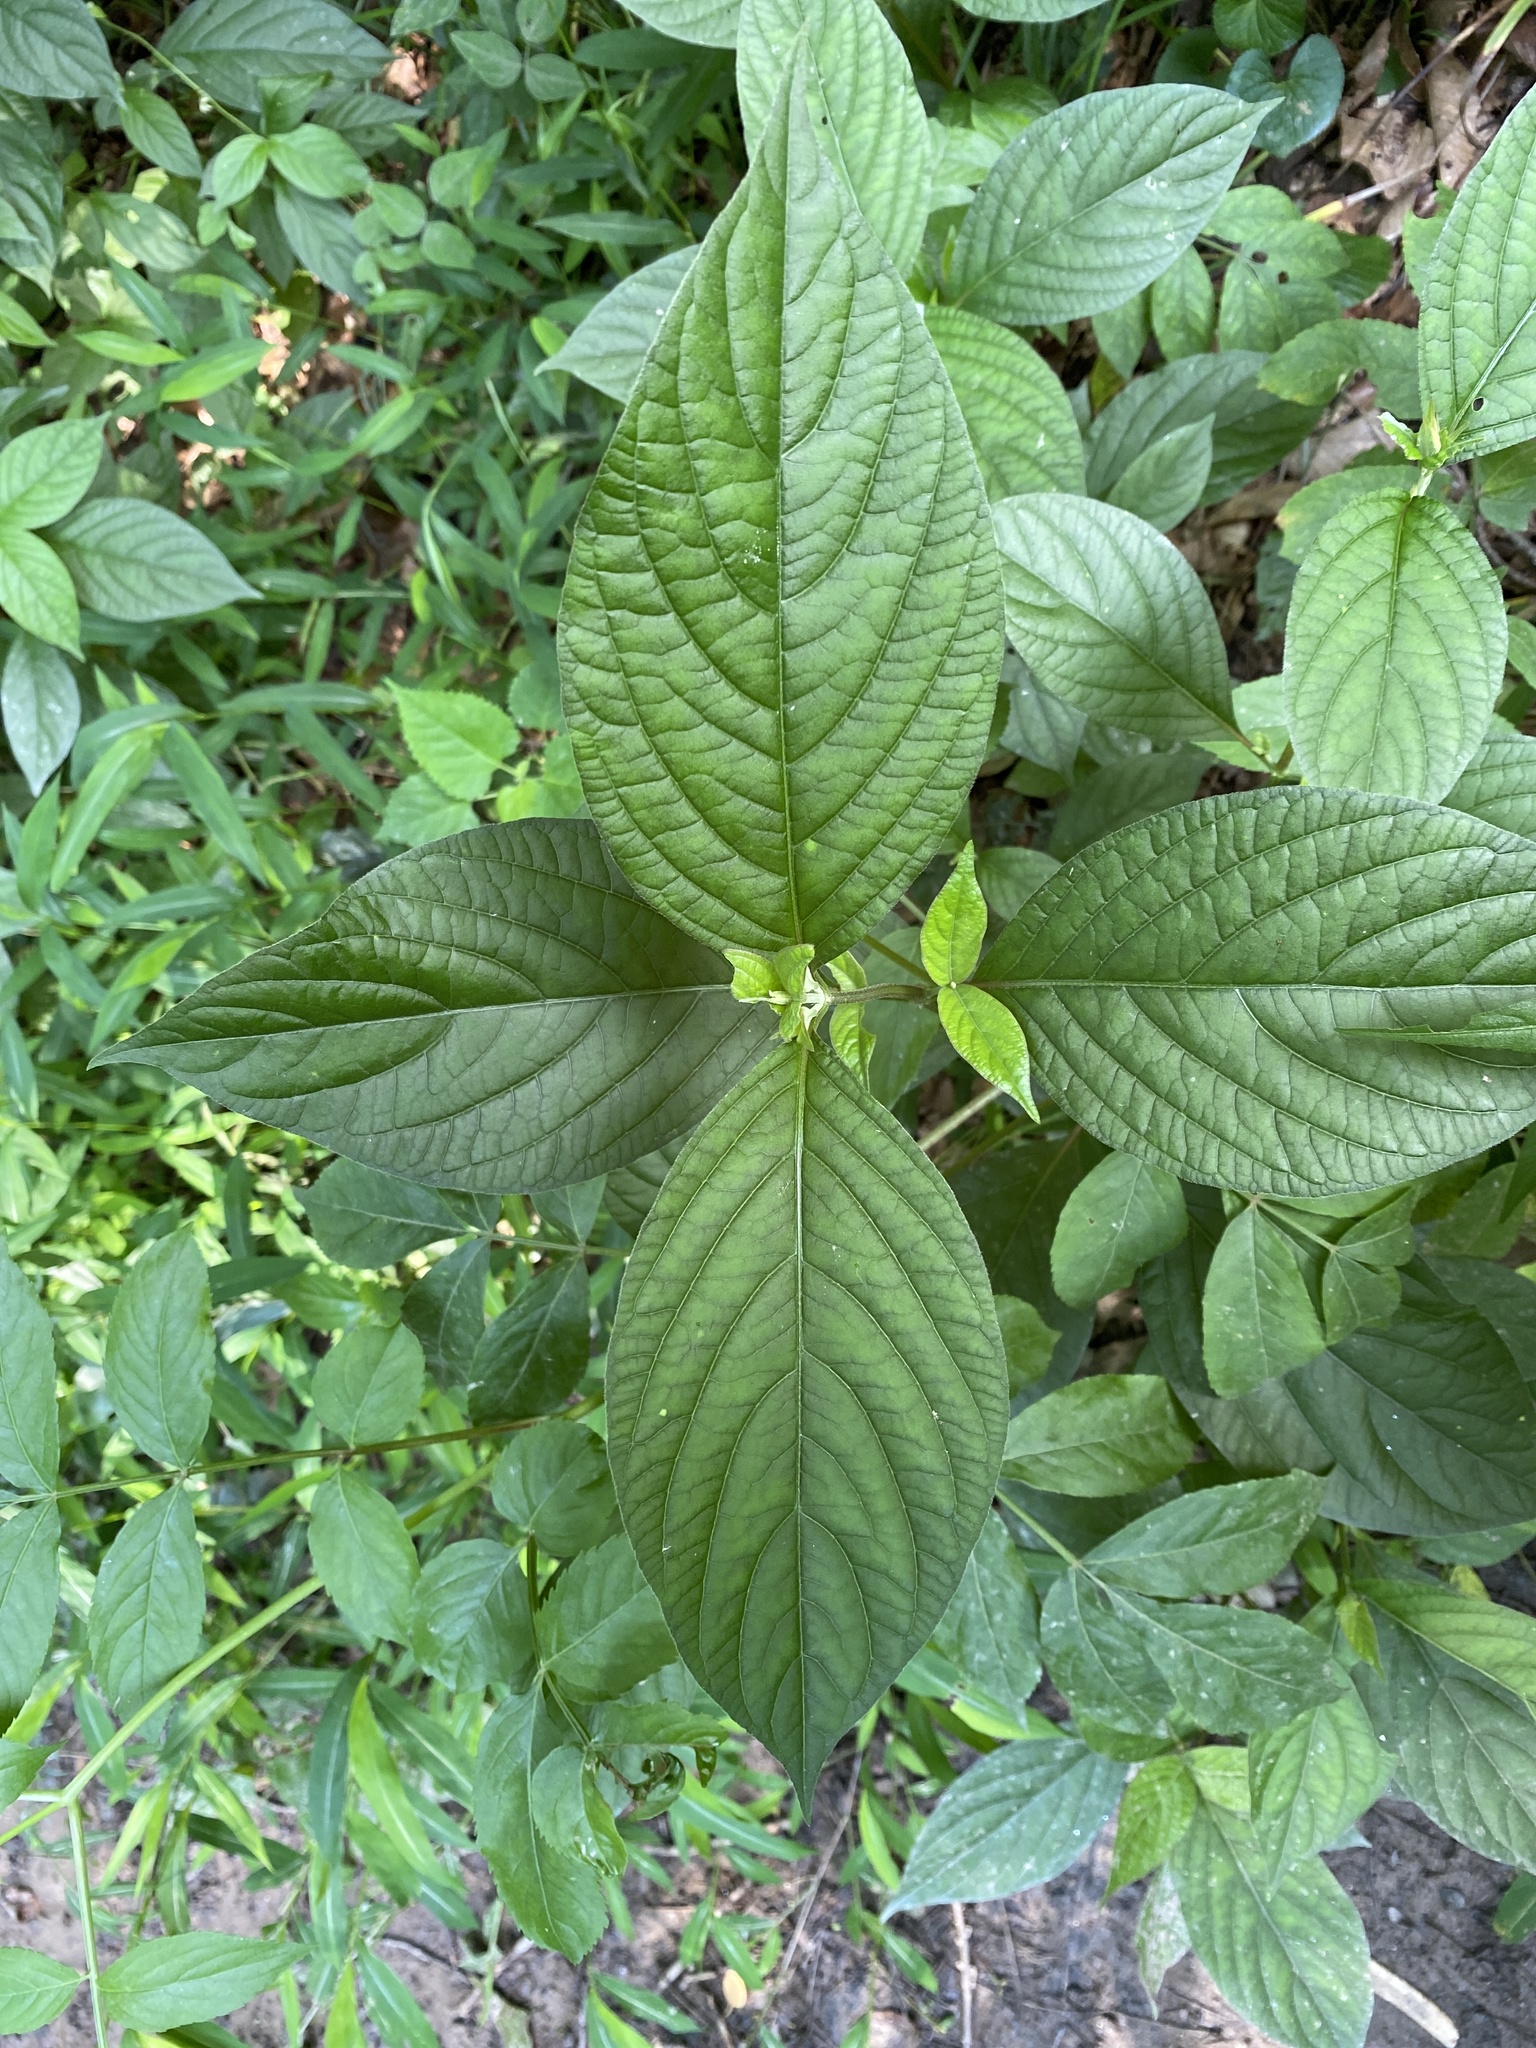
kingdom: Plantae
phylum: Tracheophyta
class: Magnoliopsida
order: Caryophyllales
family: Amaranthaceae
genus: Achyranthes
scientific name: Achyranthes bidentata
